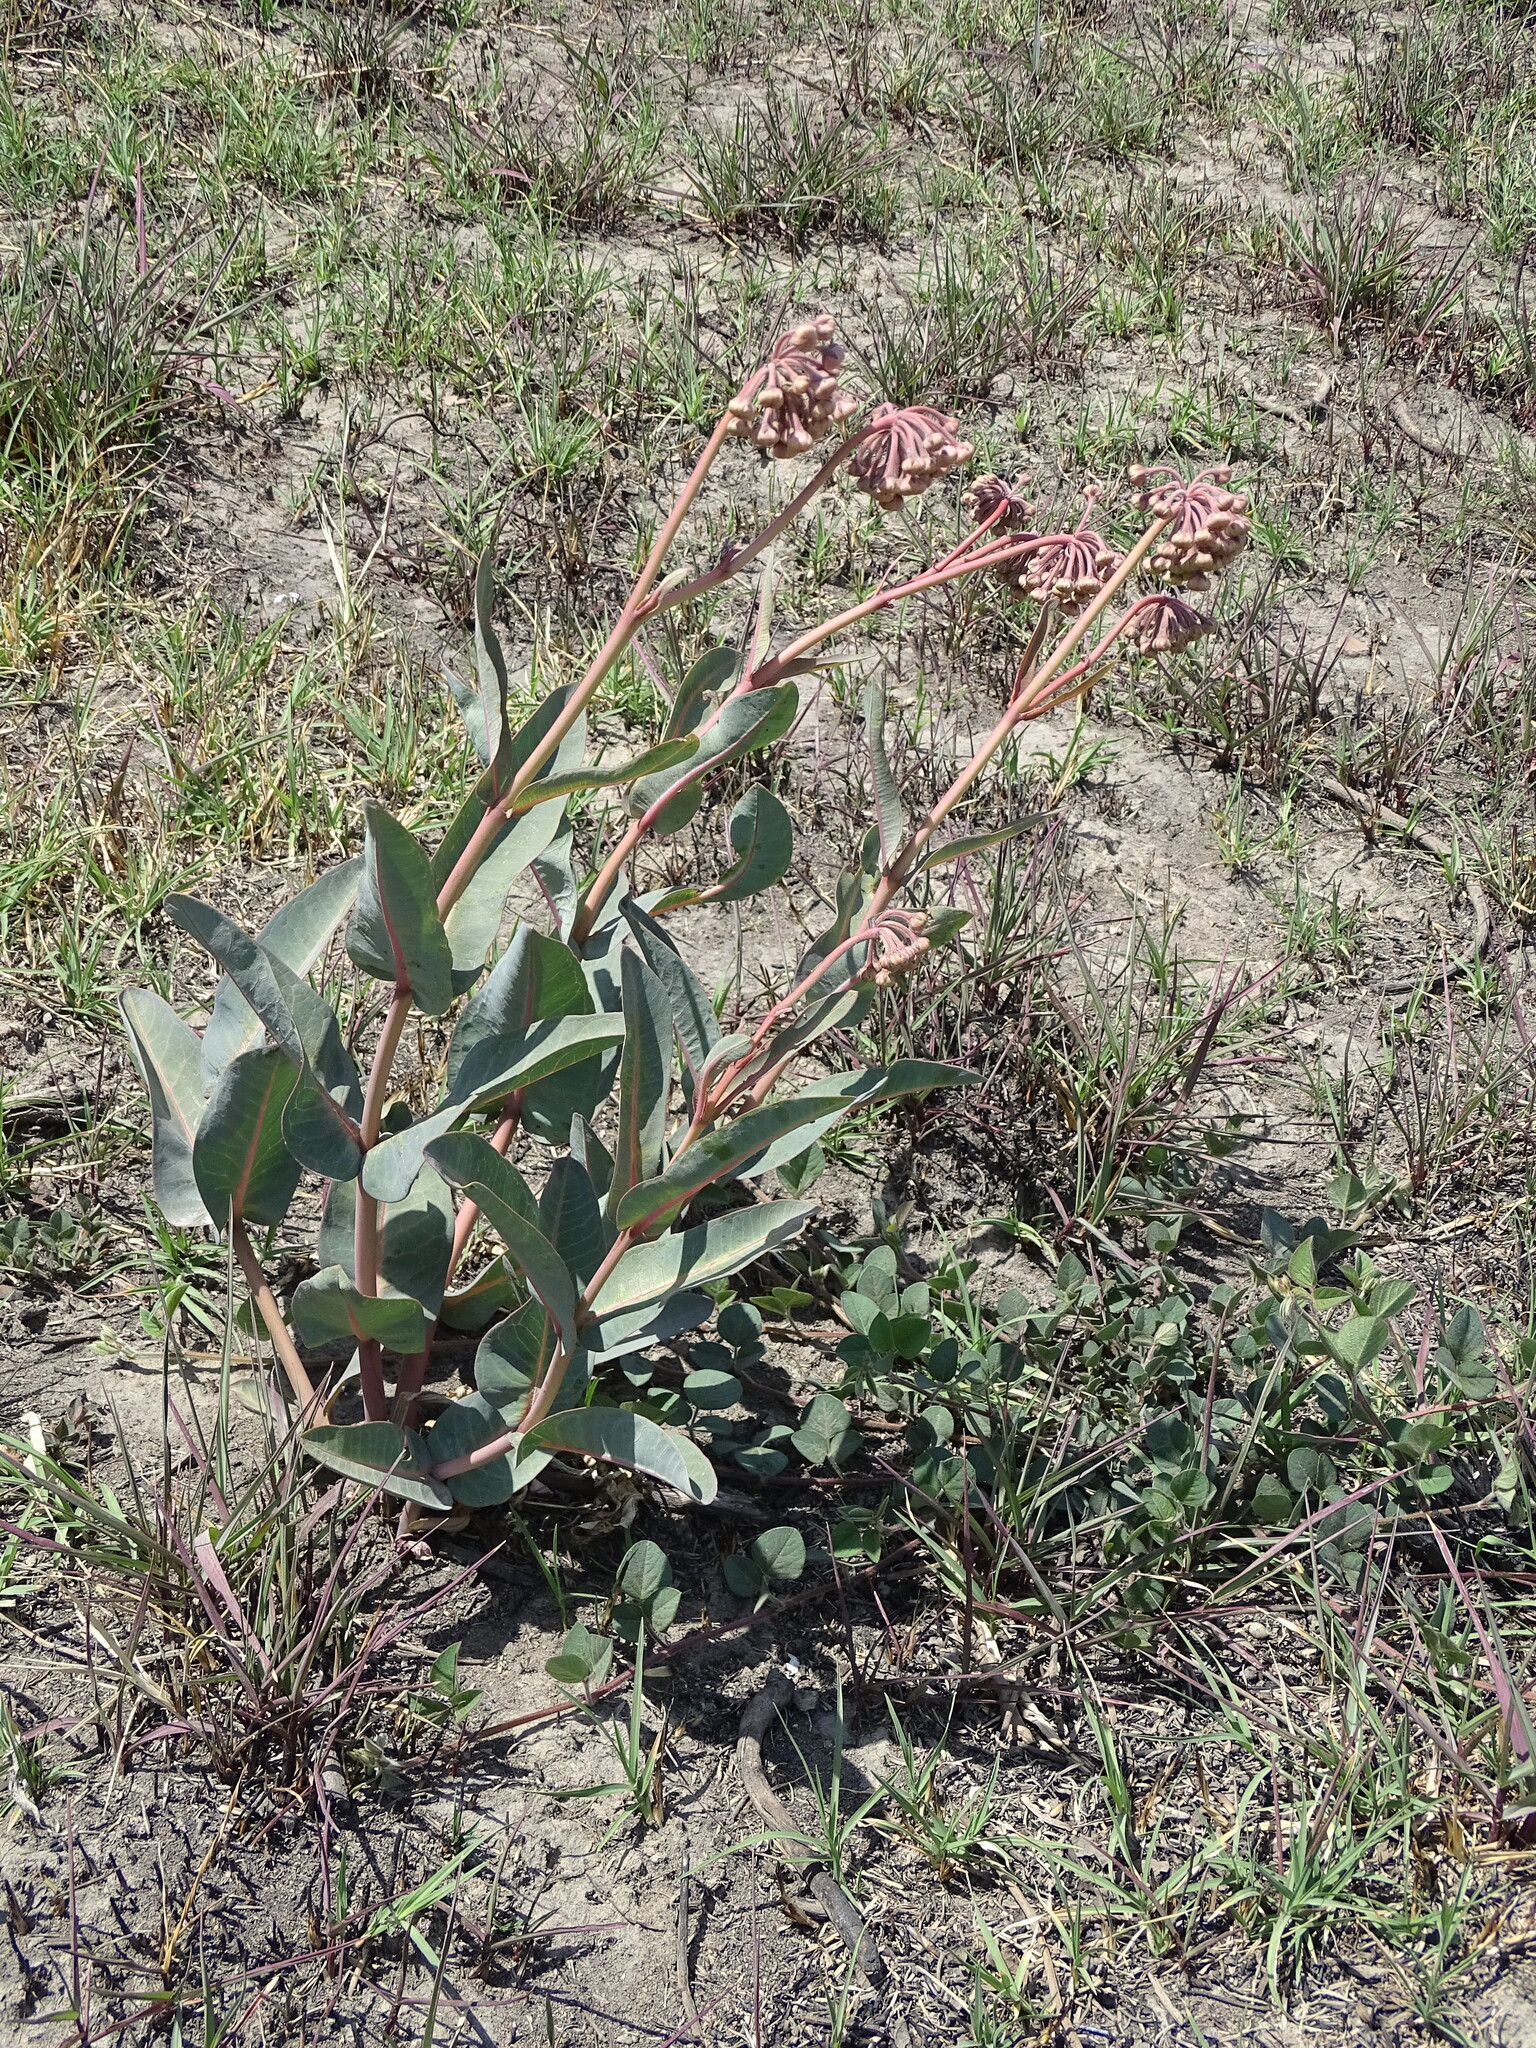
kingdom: Plantae
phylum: Tracheophyta
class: Magnoliopsida
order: Gentianales
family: Apocynaceae
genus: Asclepias
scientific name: Asclepias glaucescens
